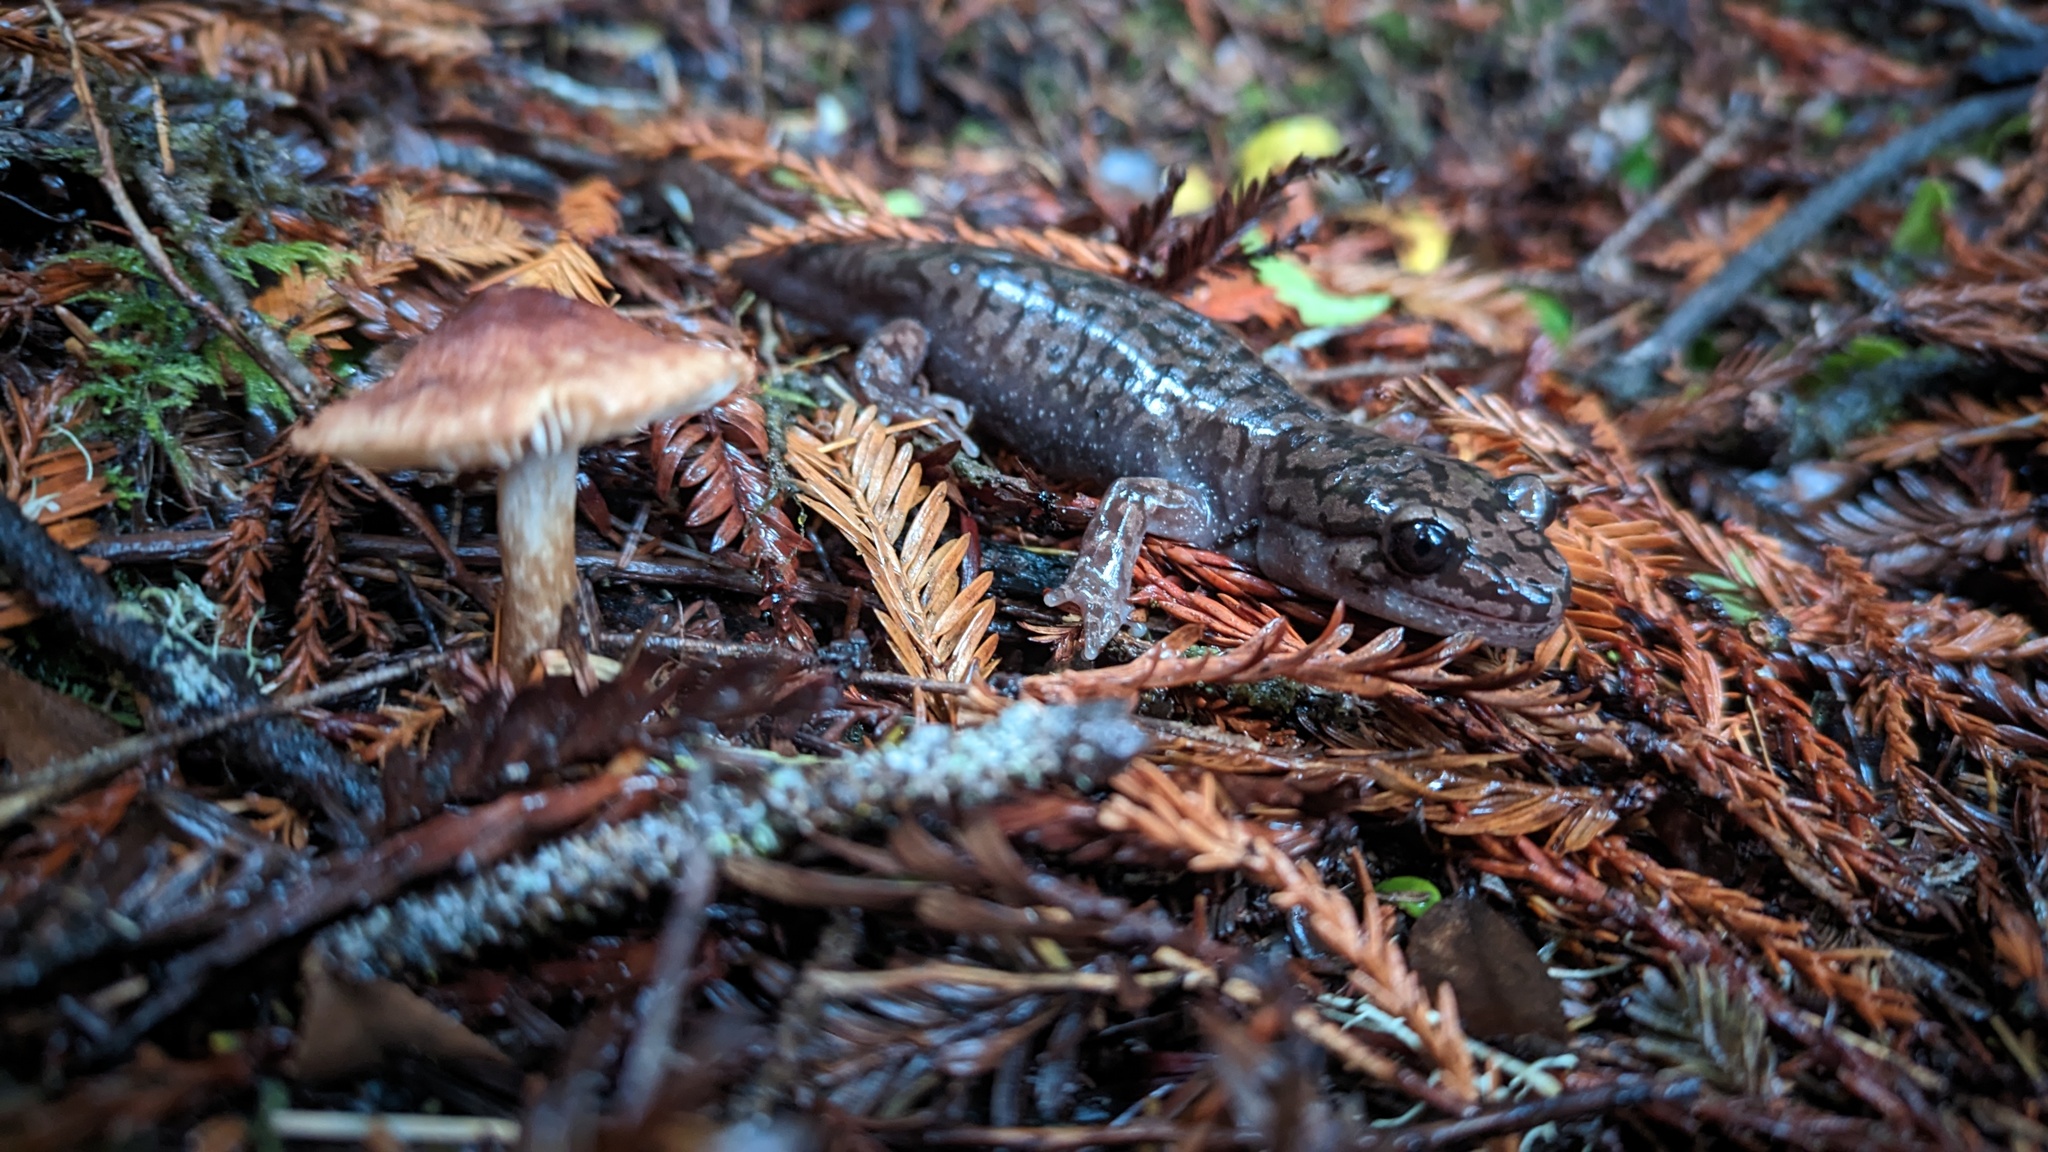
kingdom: Animalia
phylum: Chordata
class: Amphibia
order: Caudata
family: Ambystomatidae
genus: Dicamptodon
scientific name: Dicamptodon tenebrosus
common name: Coastal giant salamander
